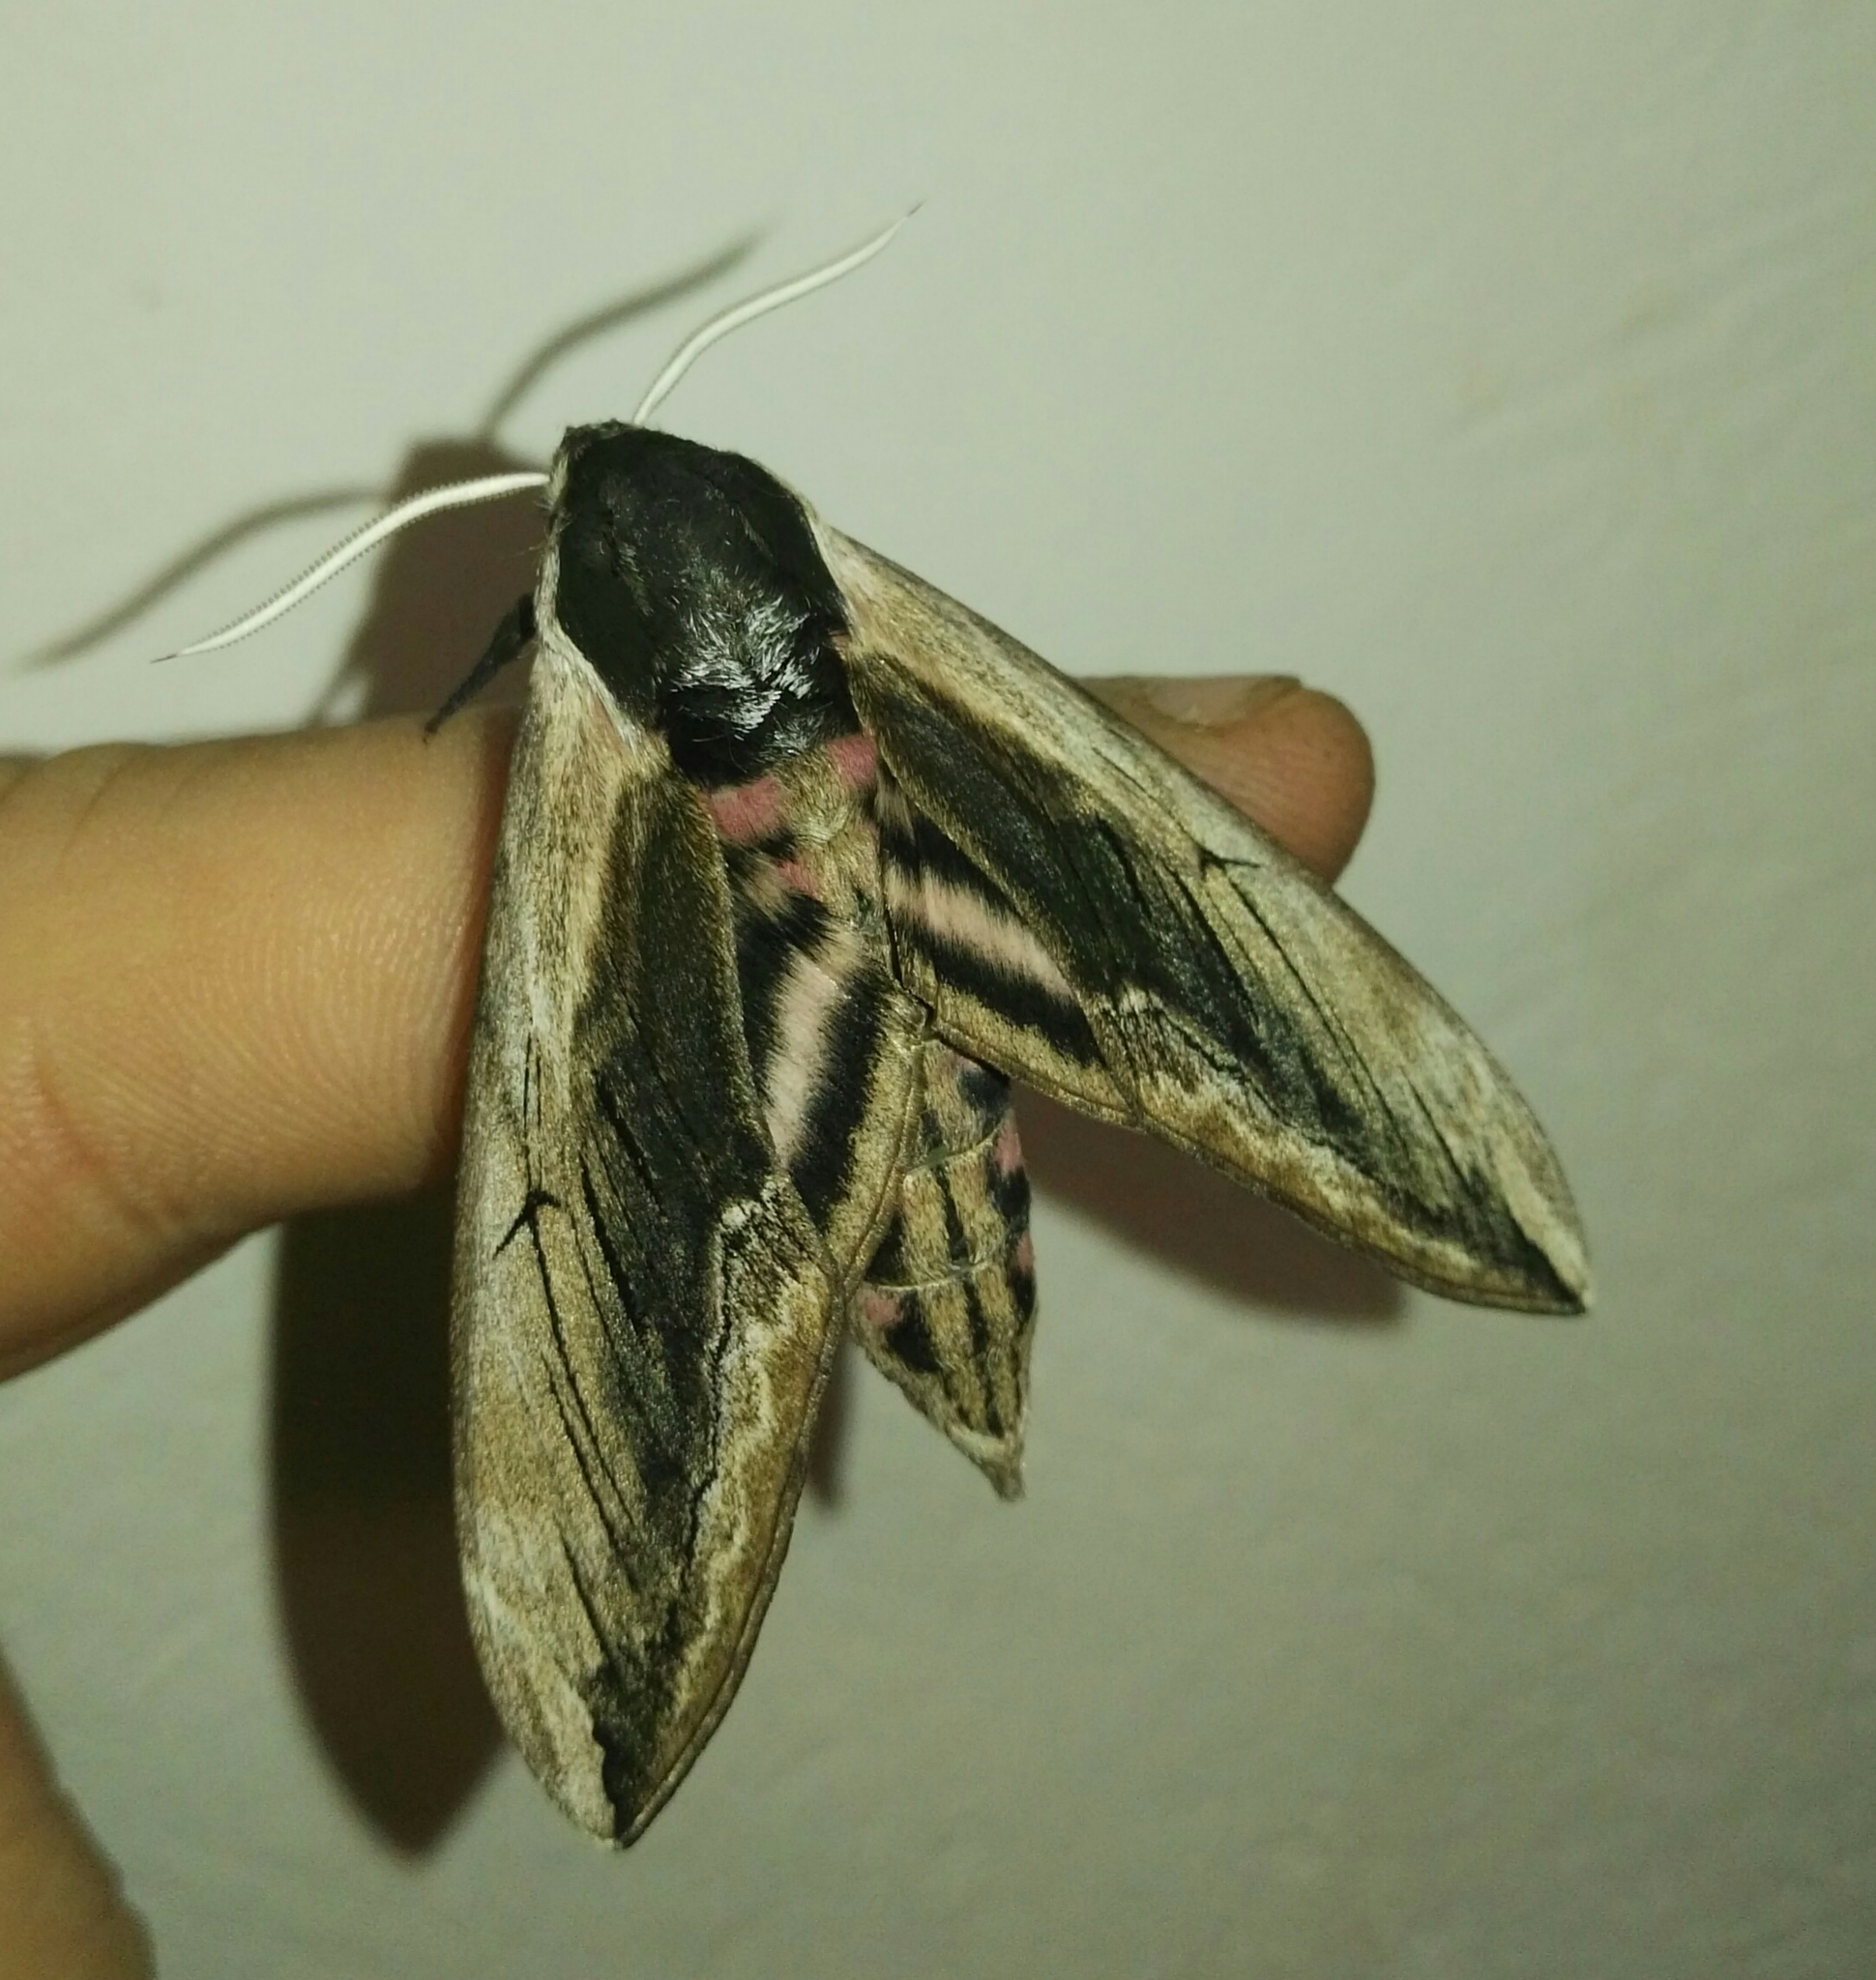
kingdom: Animalia
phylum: Arthropoda
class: Insecta
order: Lepidoptera
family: Sphingidae
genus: Sphinx
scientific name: Sphinx ligustri
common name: Privet hawk-moth
